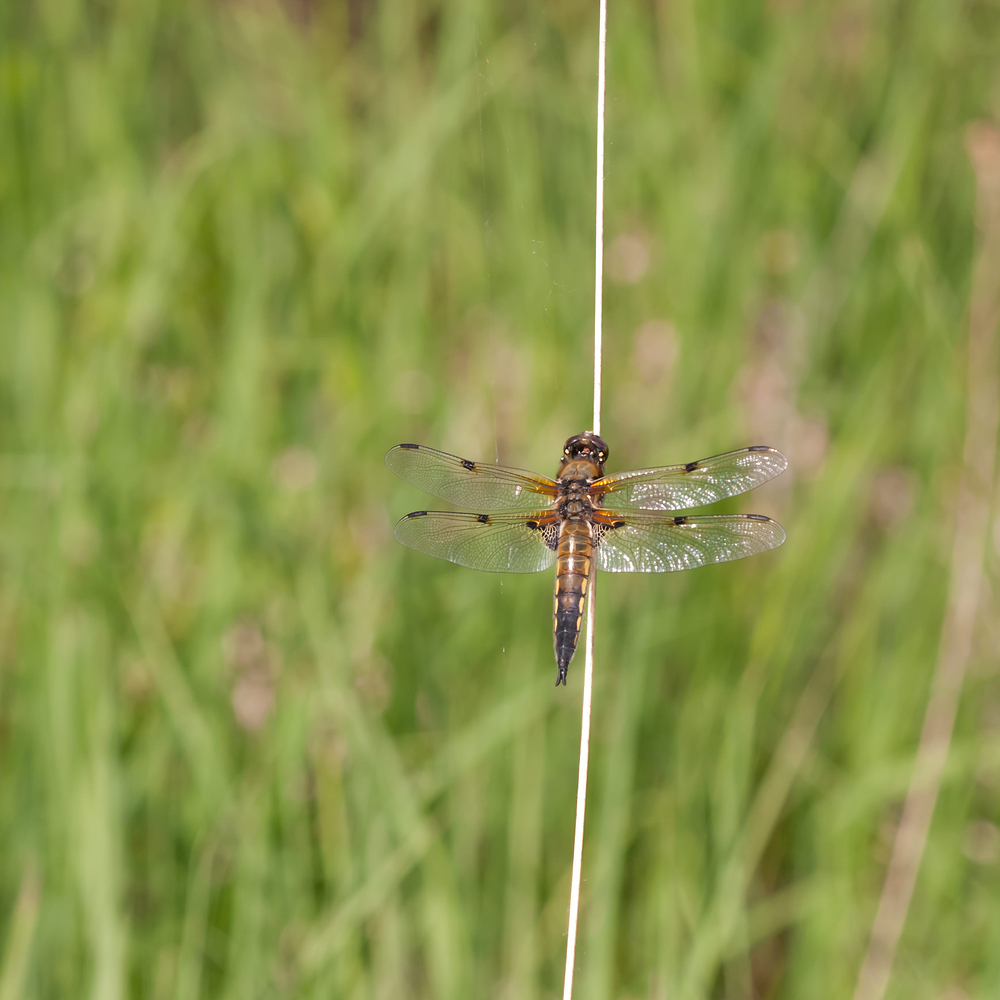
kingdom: Animalia
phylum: Arthropoda
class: Insecta
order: Odonata
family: Libellulidae
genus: Libellula
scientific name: Libellula quadrimaculata
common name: Four-spotted chaser
